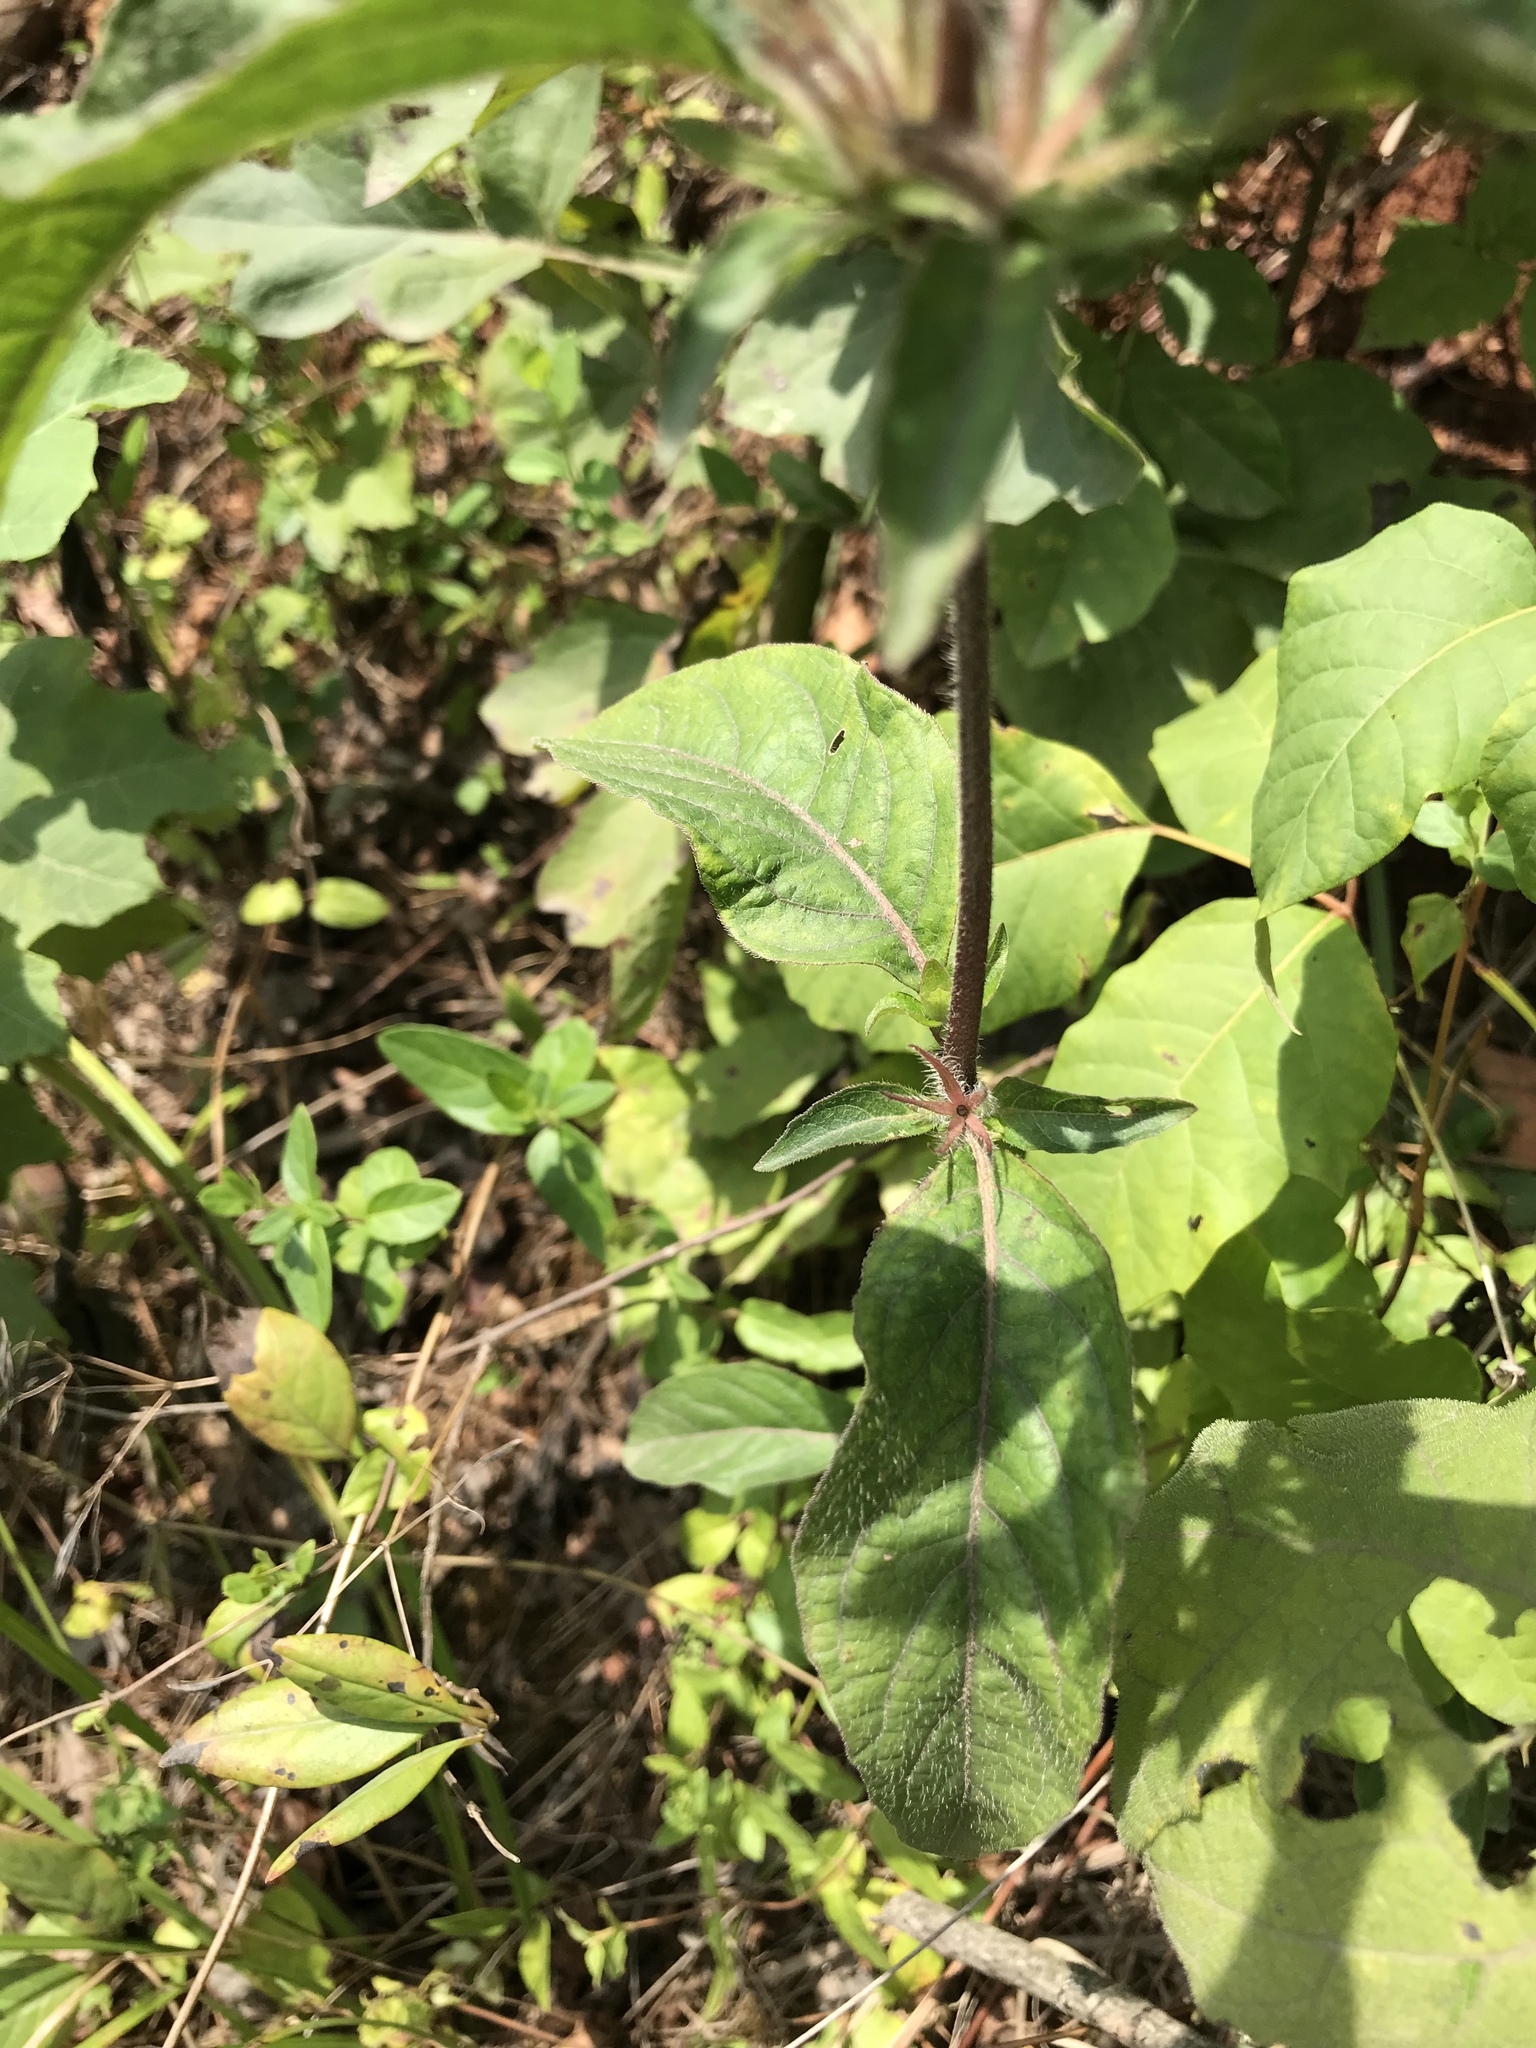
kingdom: Plantae
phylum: Tracheophyta
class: Magnoliopsida
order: Lamiales
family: Acanthaceae
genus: Ruellia
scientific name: Ruellia caroliniensis
